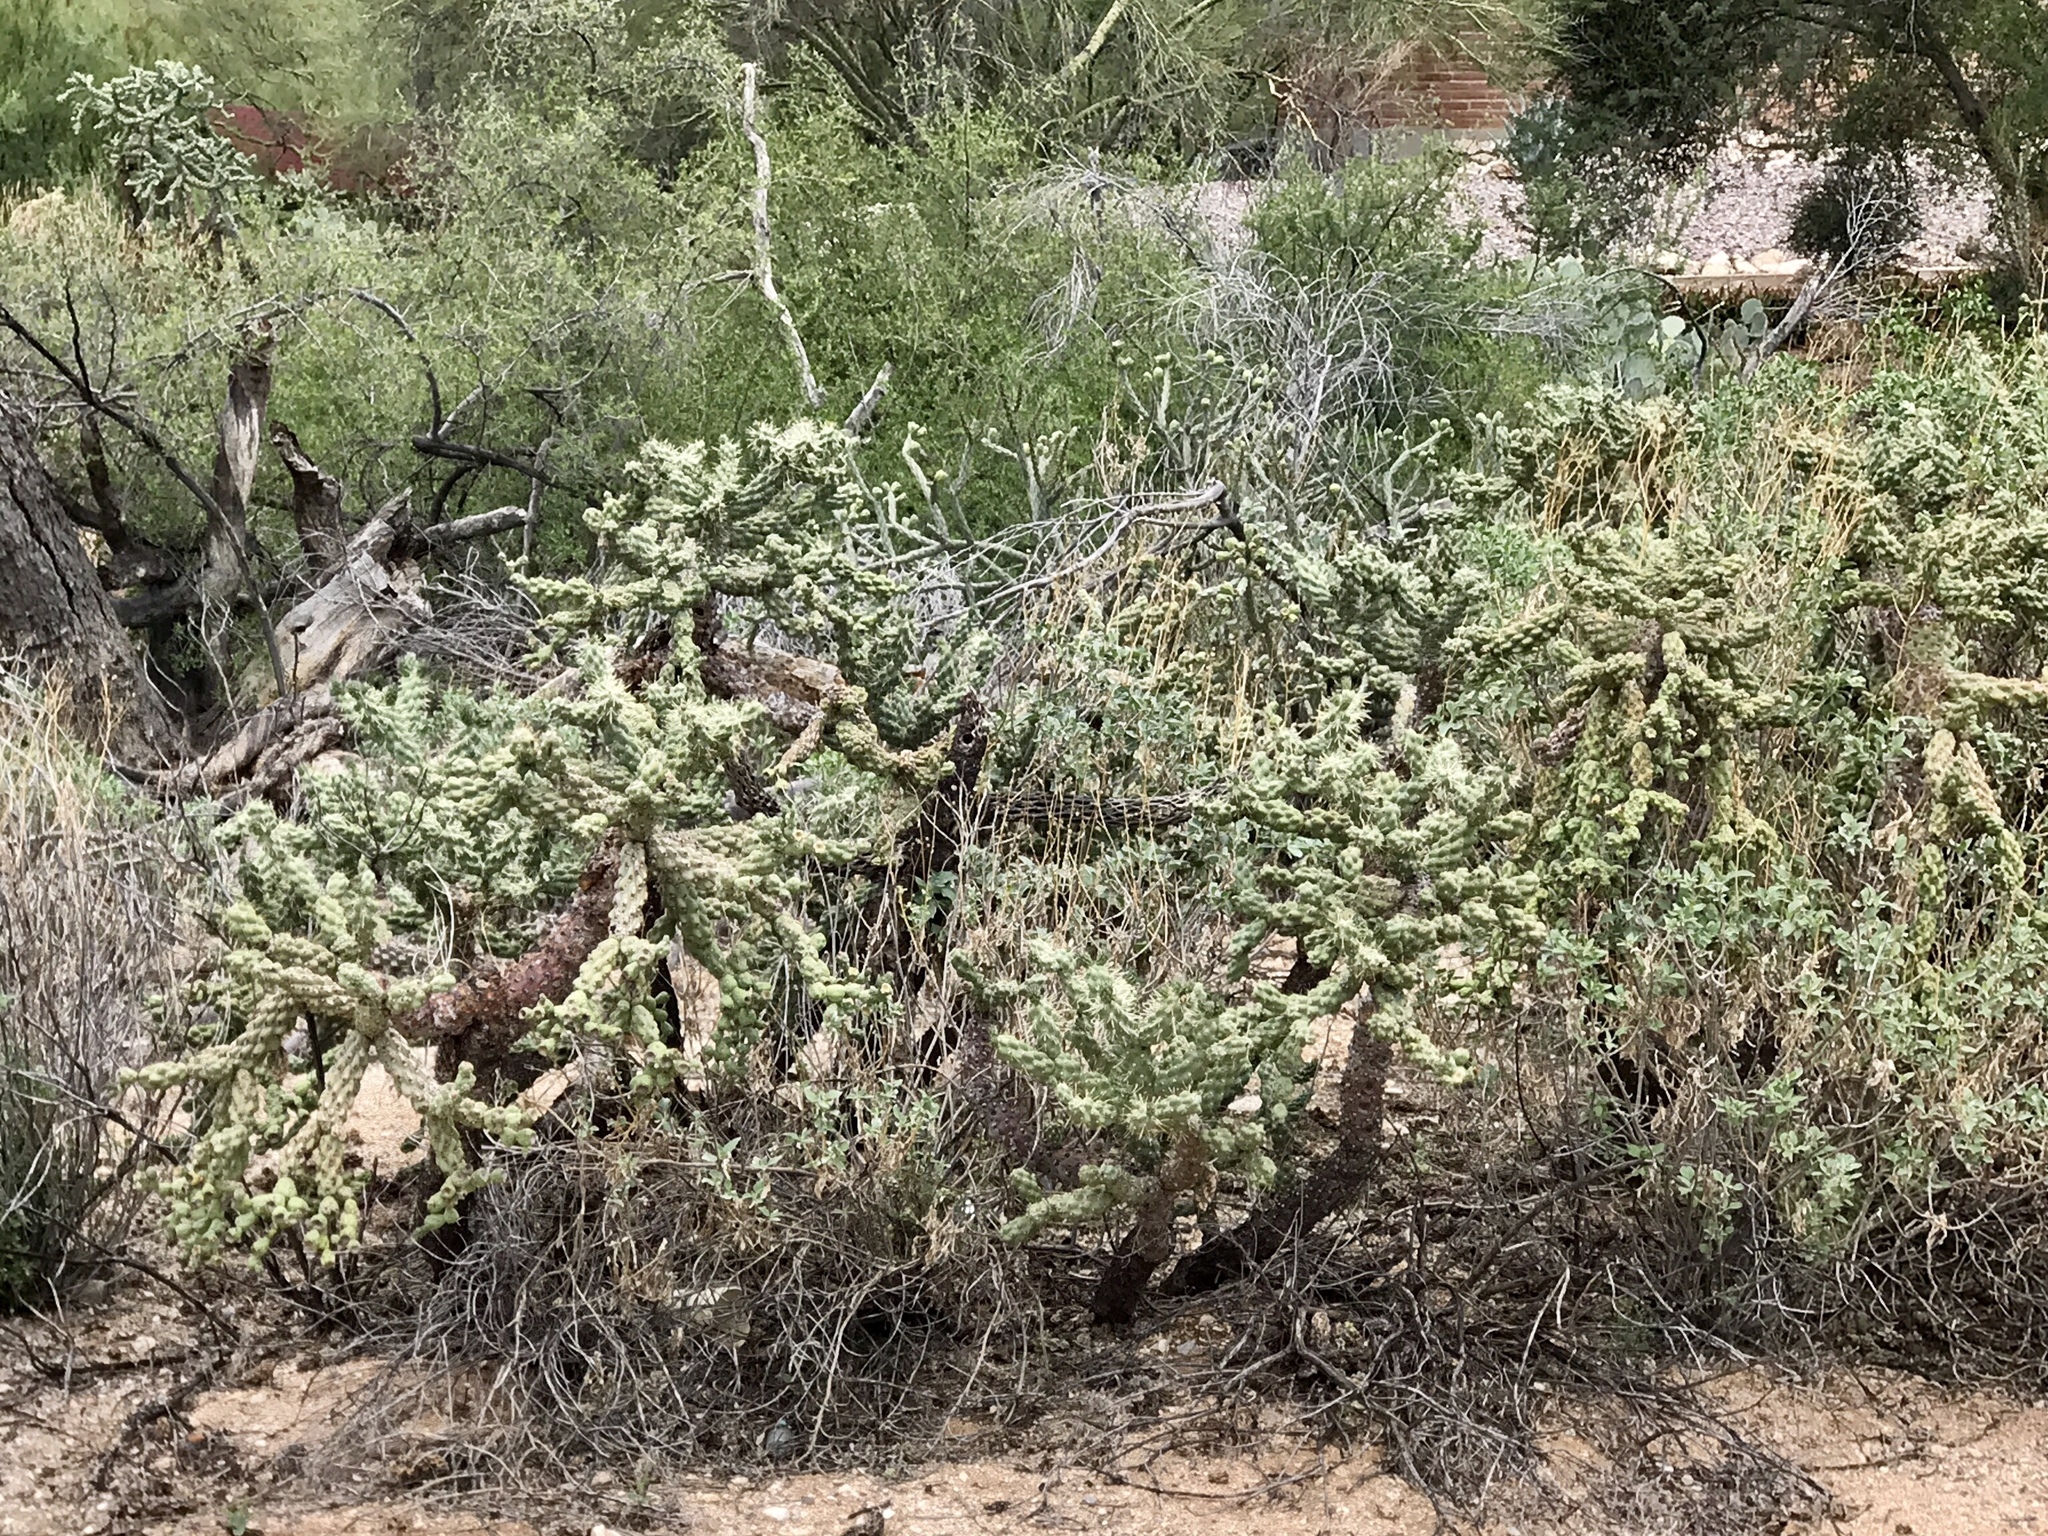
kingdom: Plantae
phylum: Tracheophyta
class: Magnoliopsida
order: Caryophyllales
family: Cactaceae
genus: Cylindropuntia
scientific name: Cylindropuntia fulgida
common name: Jumping cholla
